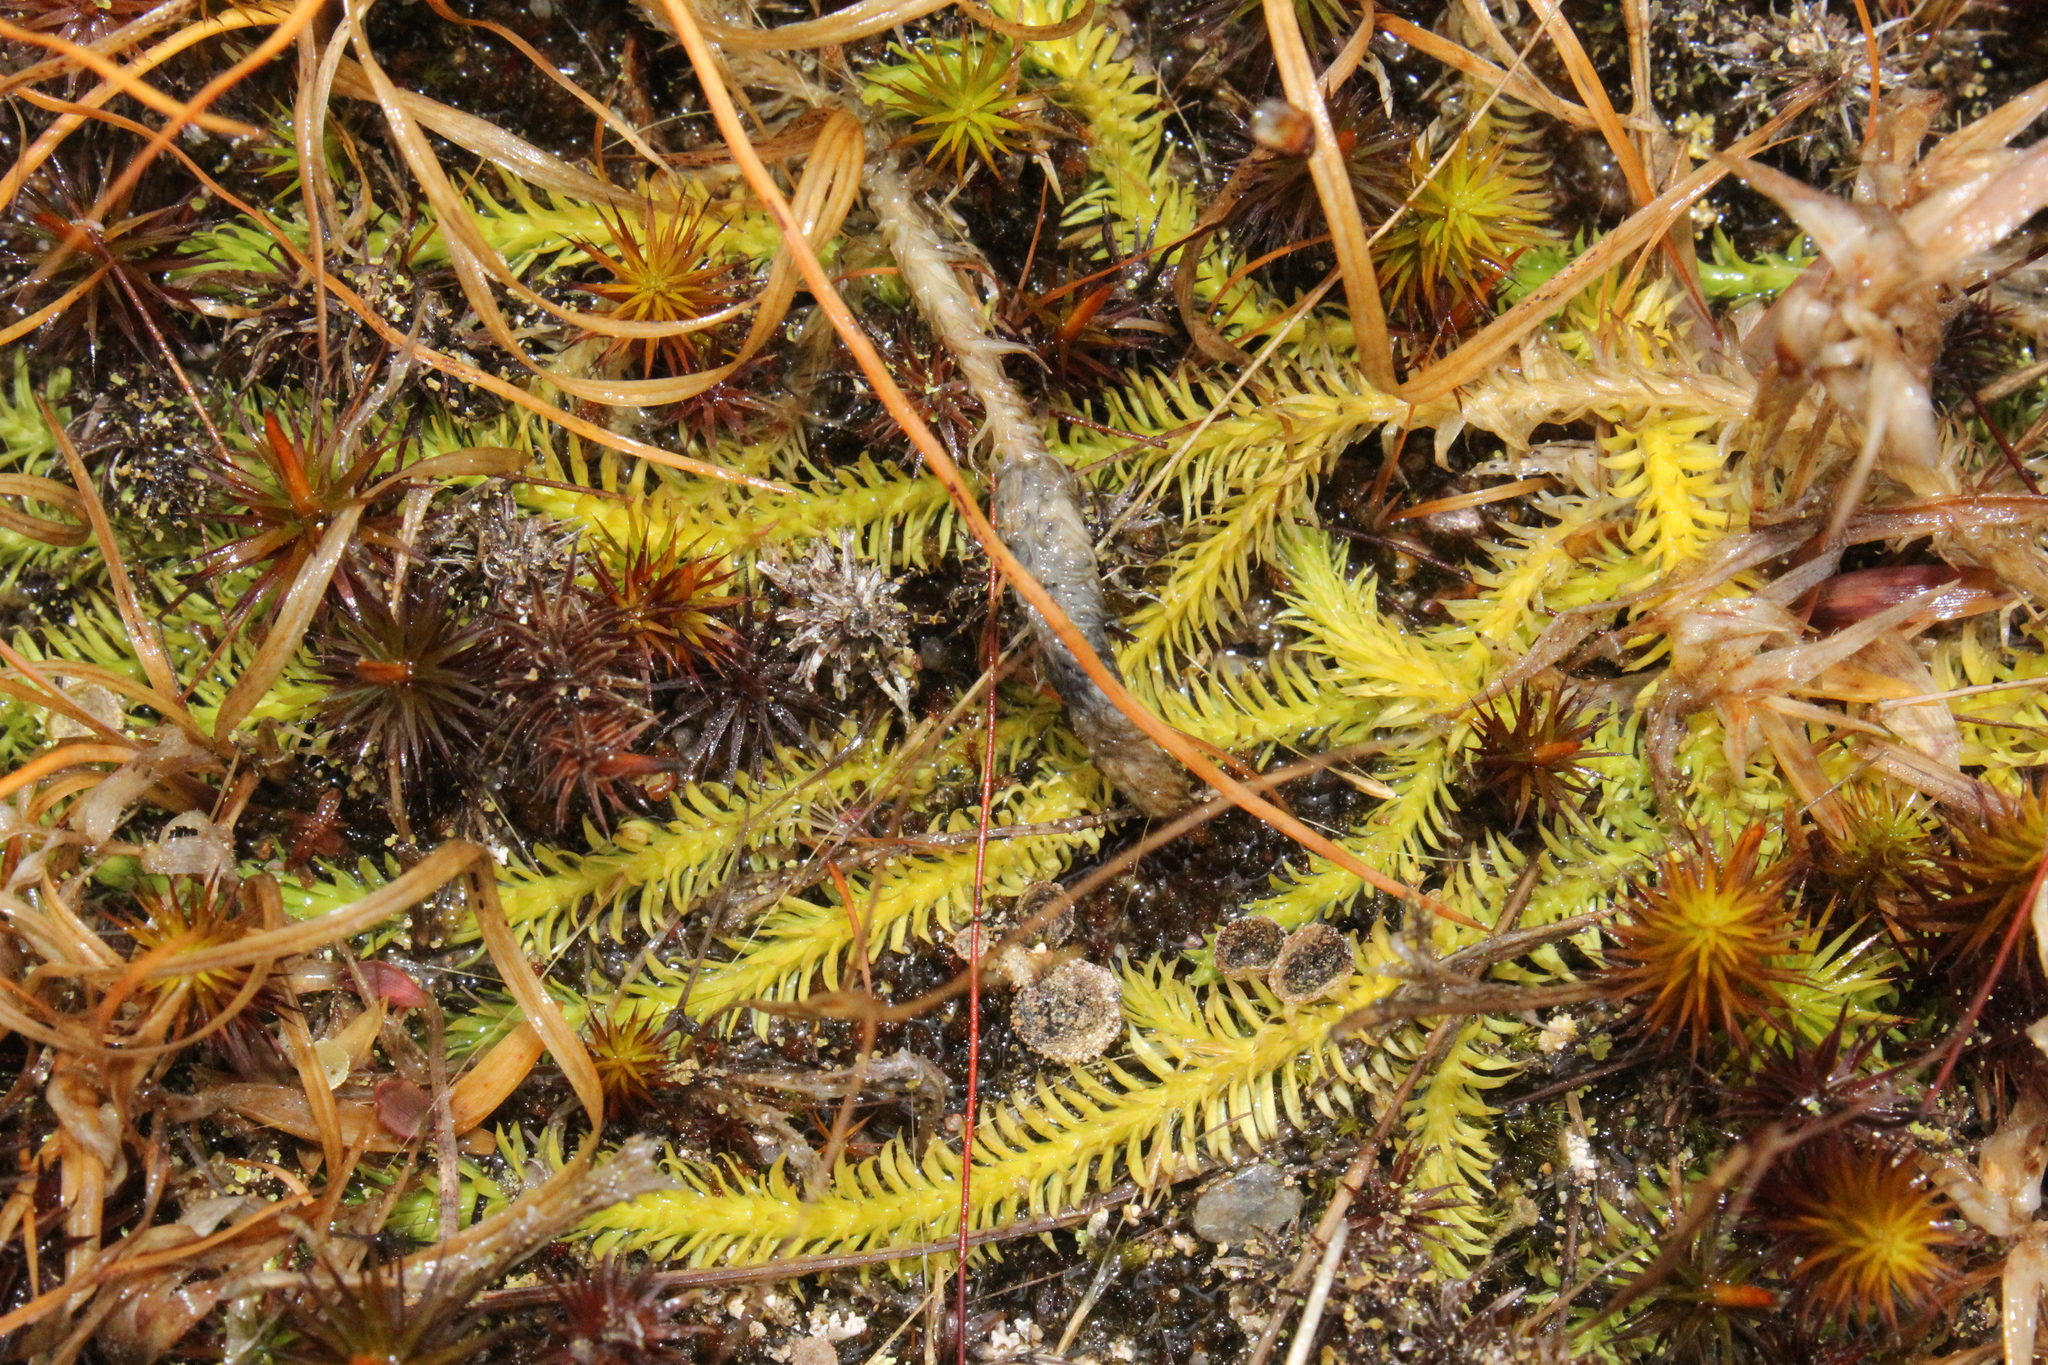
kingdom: Plantae
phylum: Tracheophyta
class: Lycopodiopsida
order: Lycopodiales
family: Lycopodiaceae
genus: Lycopodiella
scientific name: Lycopodiella appressa
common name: Appressed bog clubmoss
